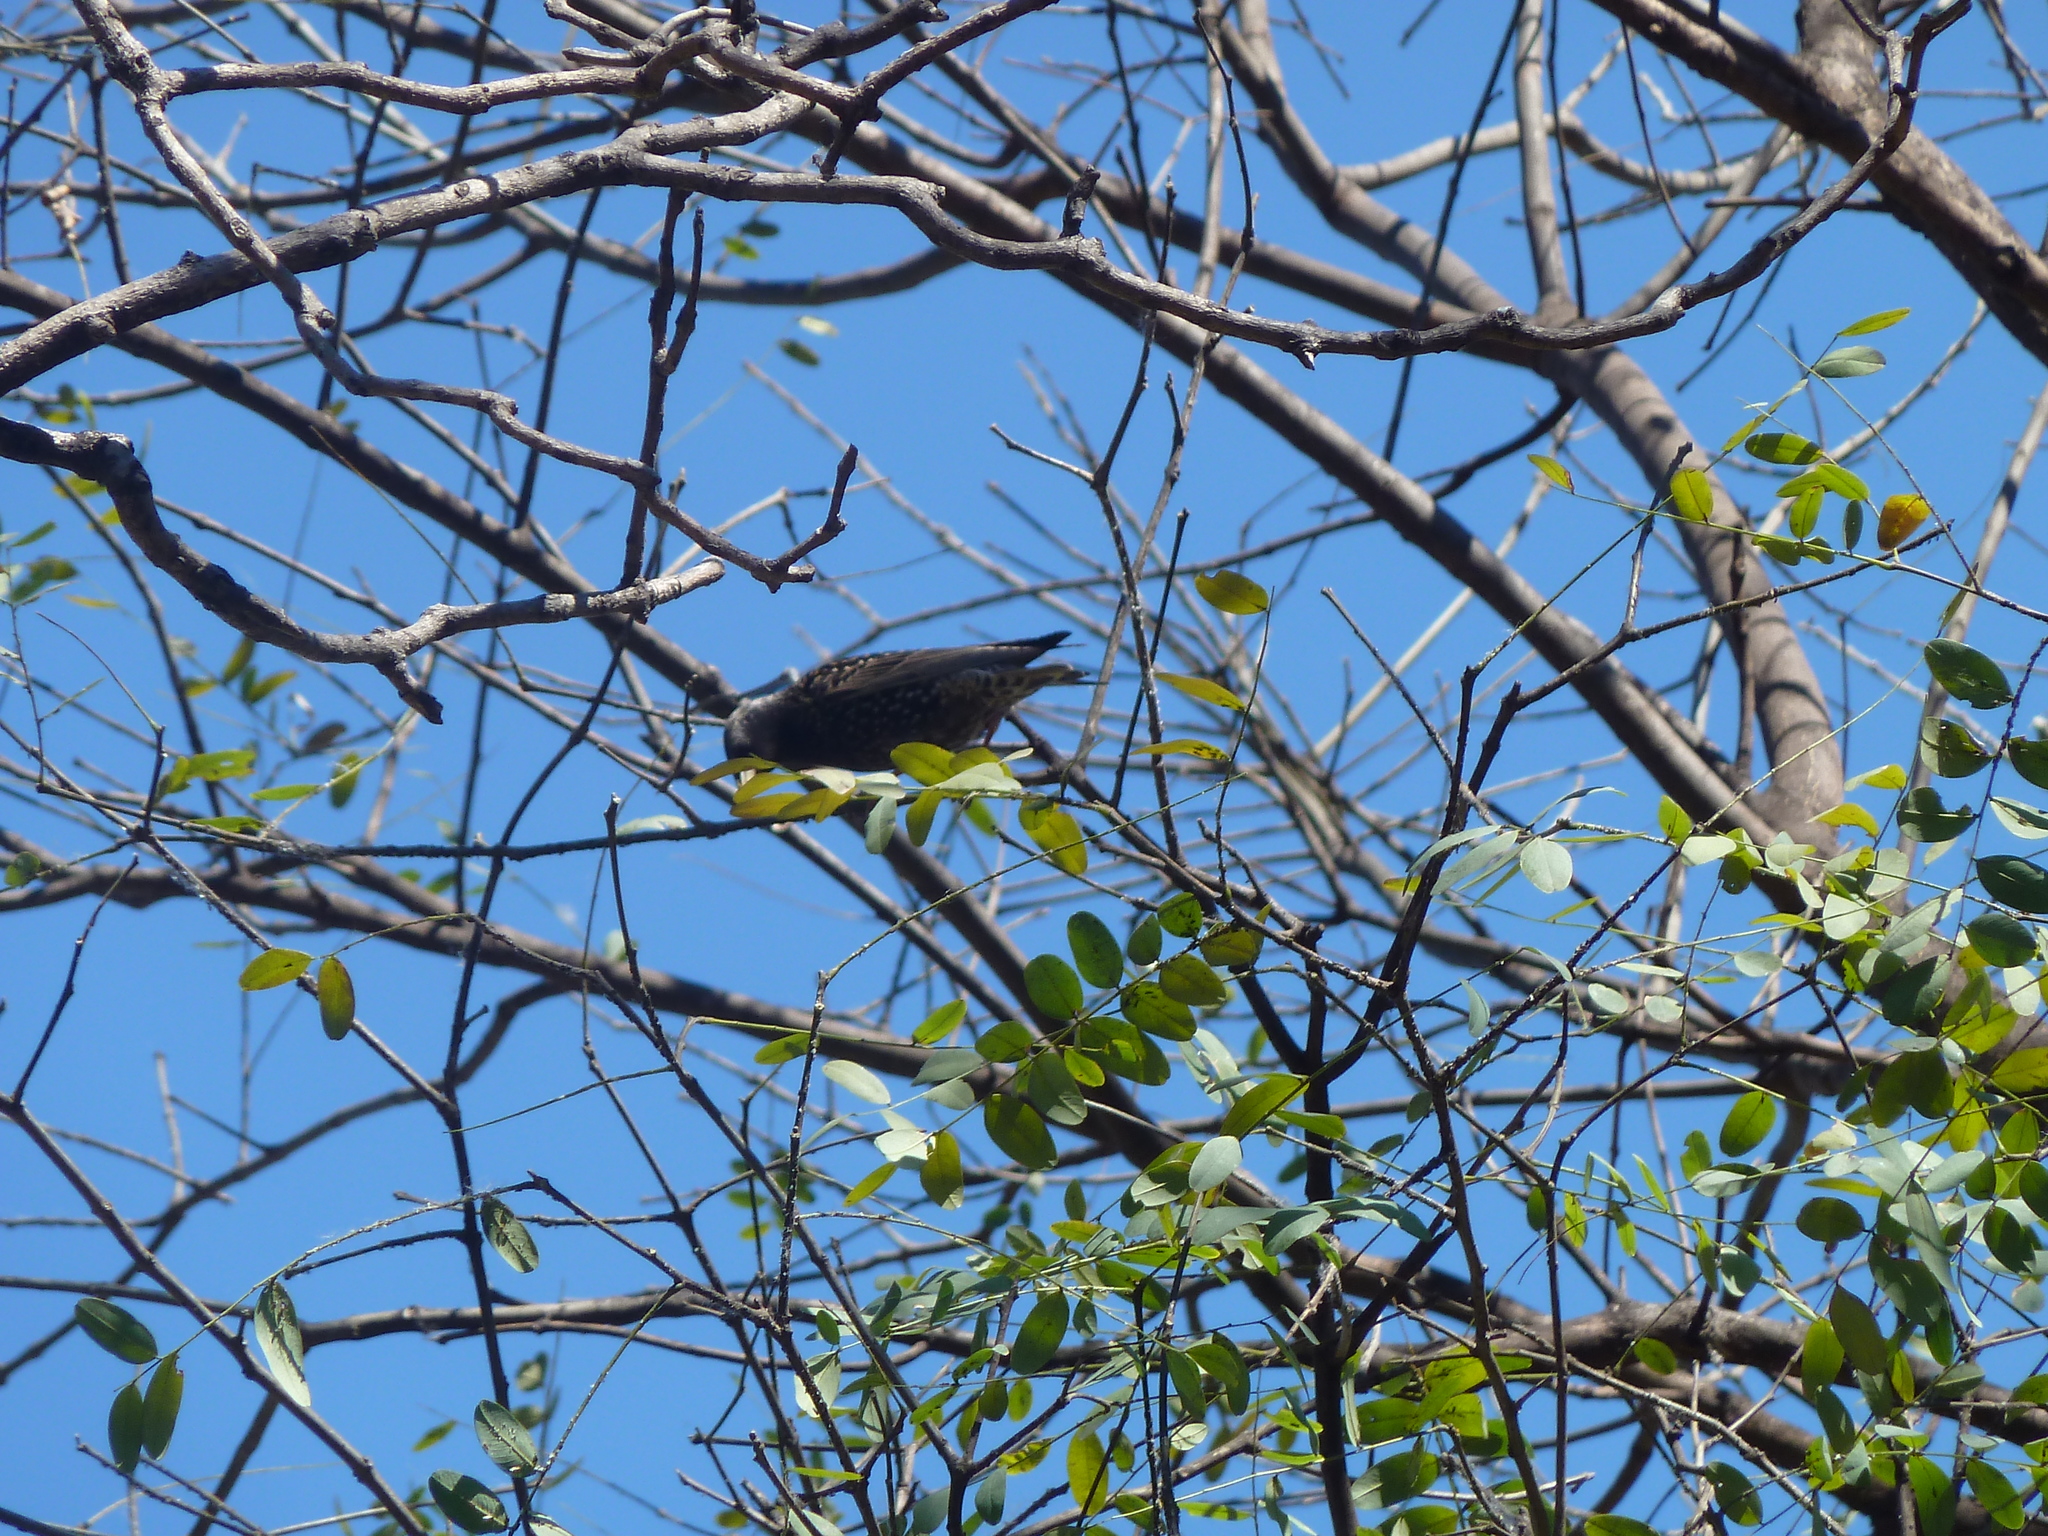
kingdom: Animalia
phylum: Chordata
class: Aves
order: Passeriformes
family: Sturnidae
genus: Sturnus
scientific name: Sturnus vulgaris
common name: Common starling
